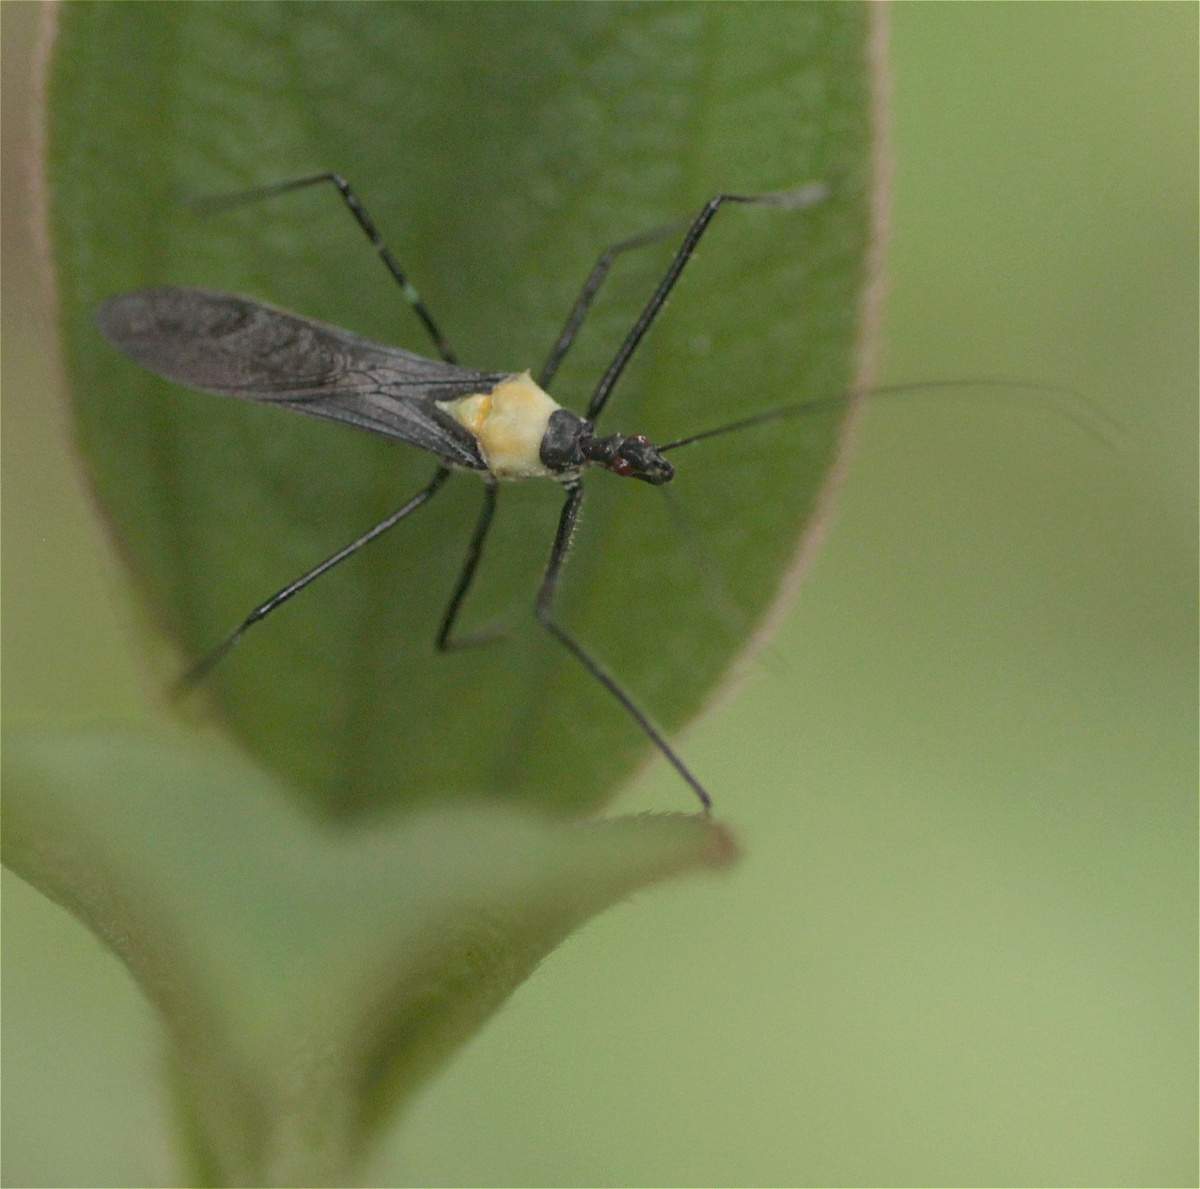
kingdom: Animalia
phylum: Arthropoda
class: Insecta
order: Hemiptera
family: Reduviidae
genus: Zelus
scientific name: Zelus inconstans
